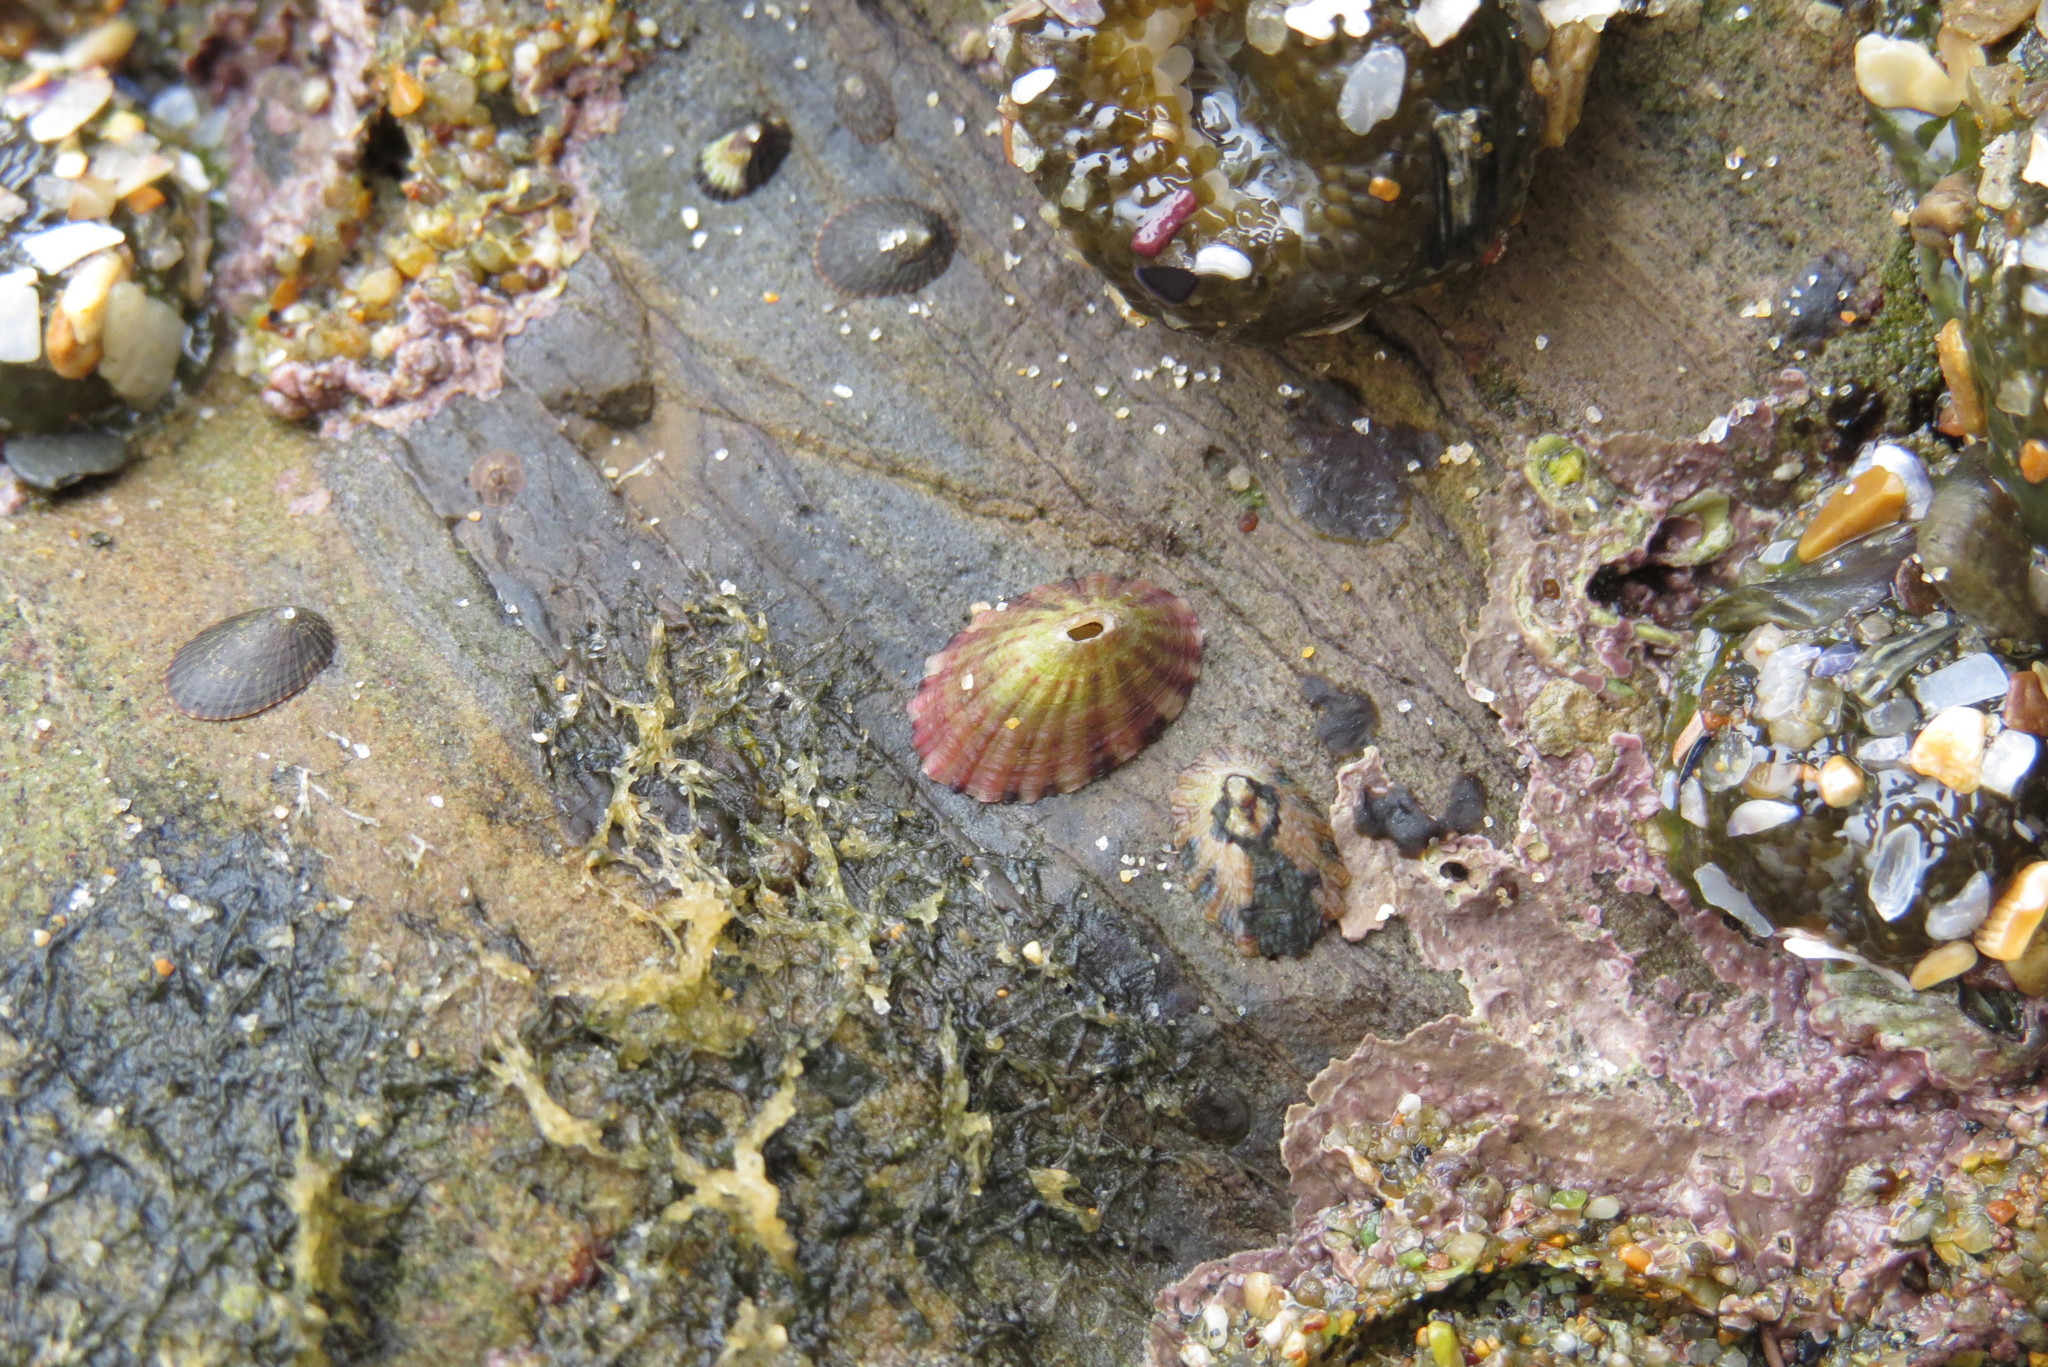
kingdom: Animalia
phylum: Mollusca
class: Gastropoda
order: Lepetellida
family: Fissurellidae
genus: Fissurella
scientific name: Fissurella volcano
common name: Volcano keyhole limpet
